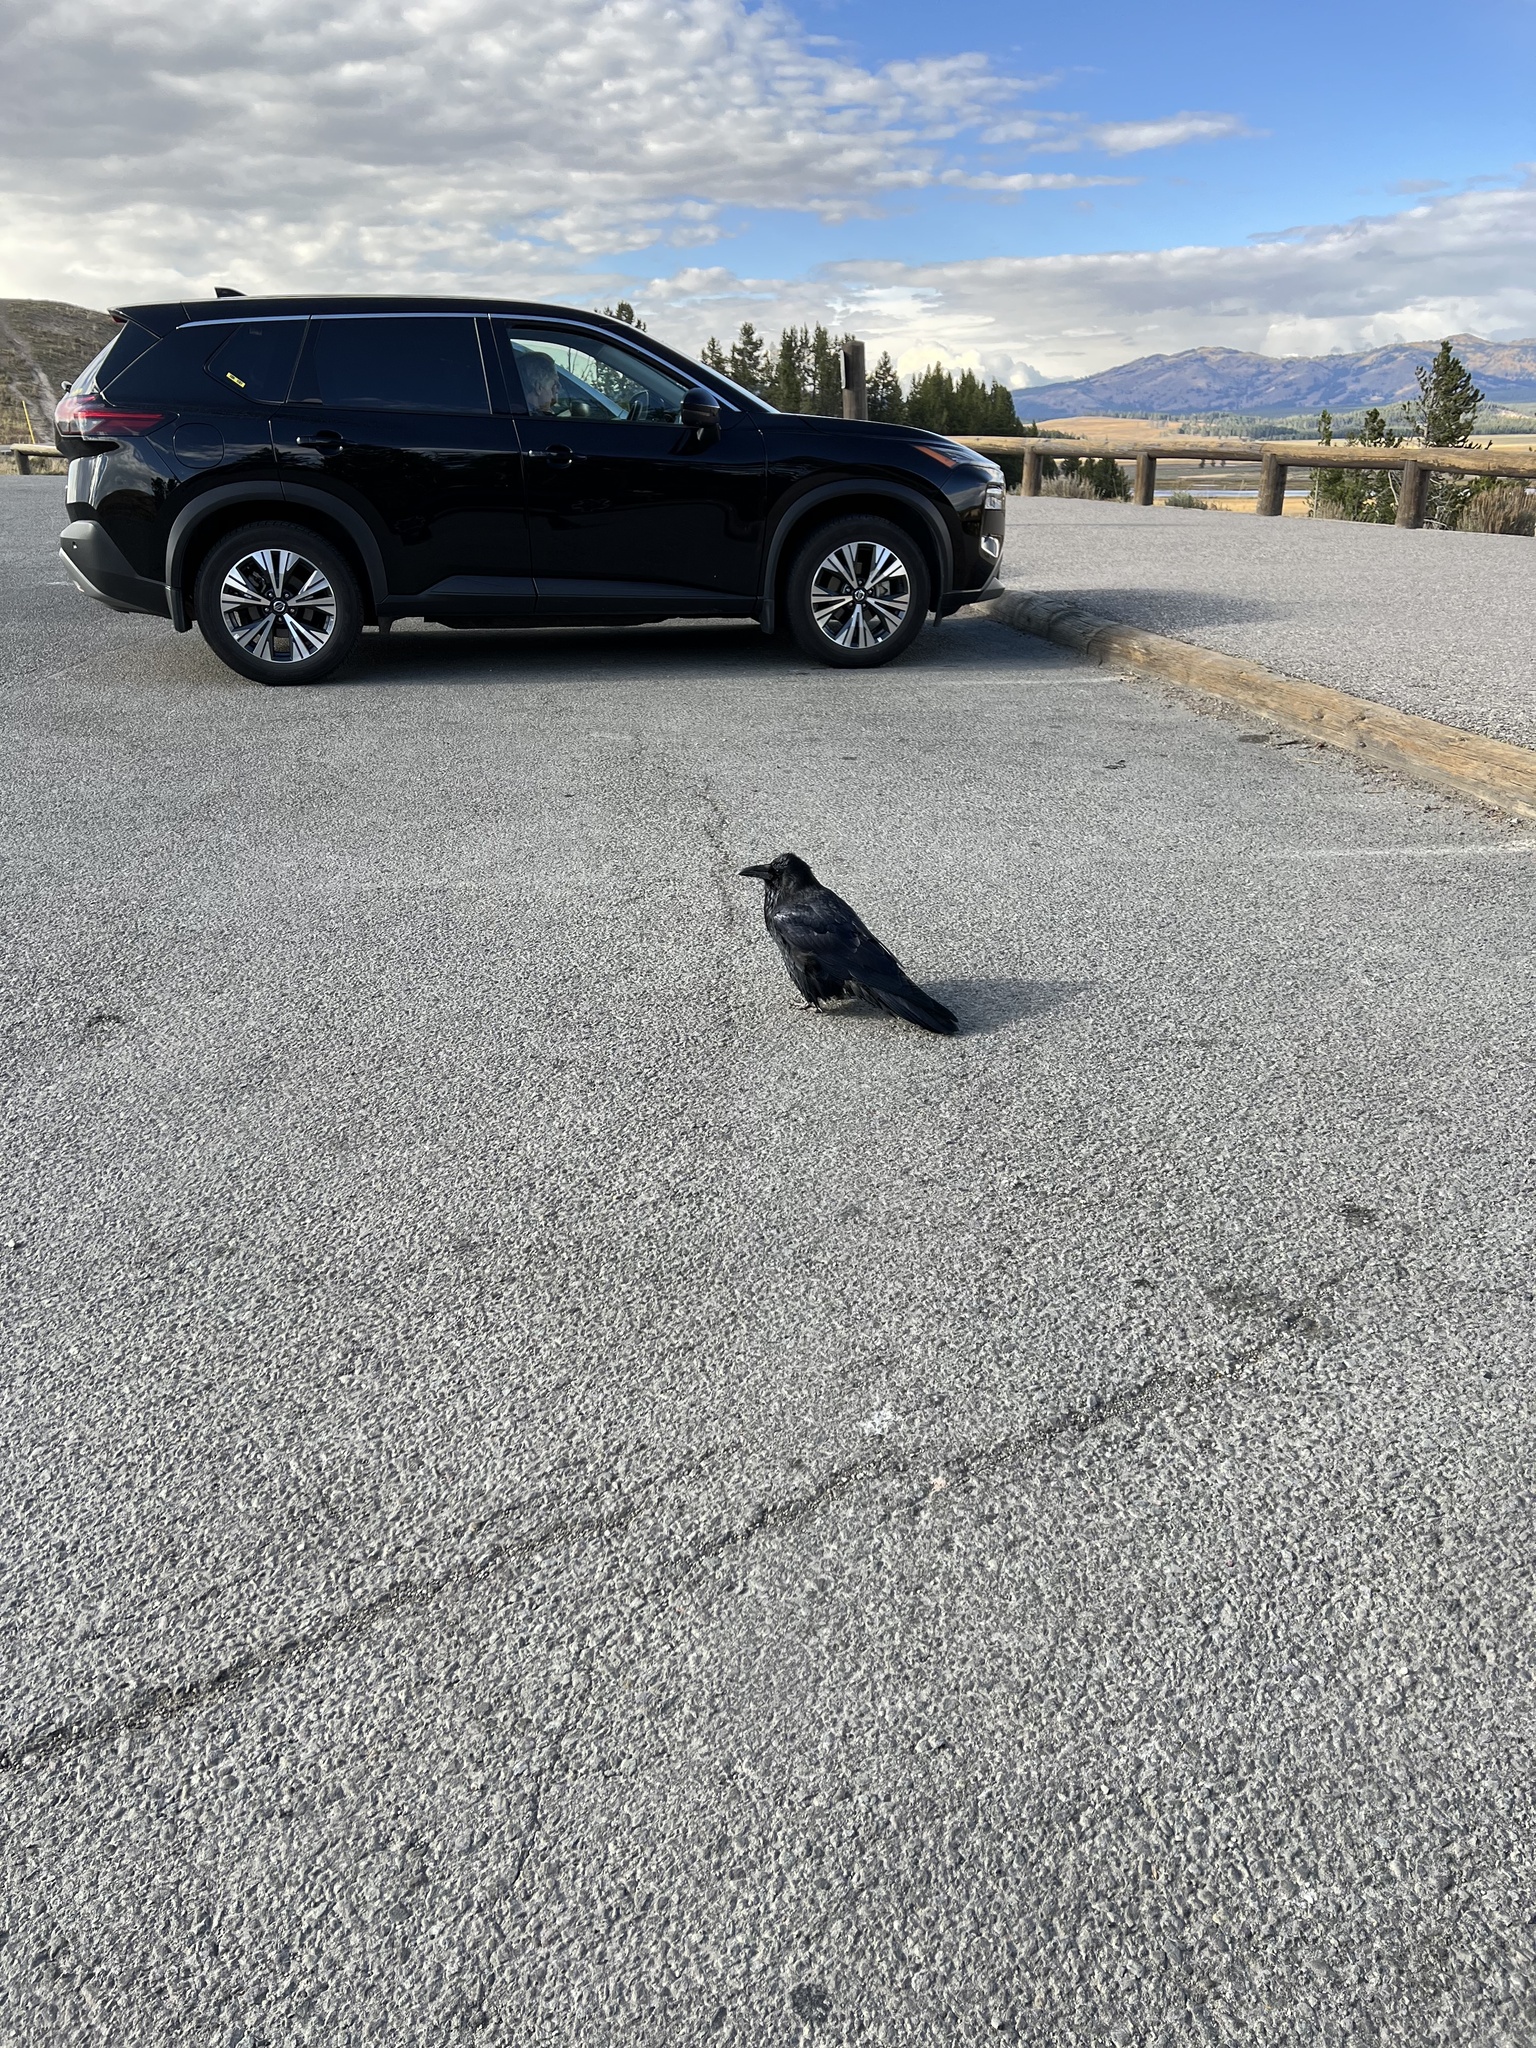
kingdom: Animalia
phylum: Chordata
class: Aves
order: Passeriformes
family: Corvidae
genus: Corvus
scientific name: Corvus corax
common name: Common raven
